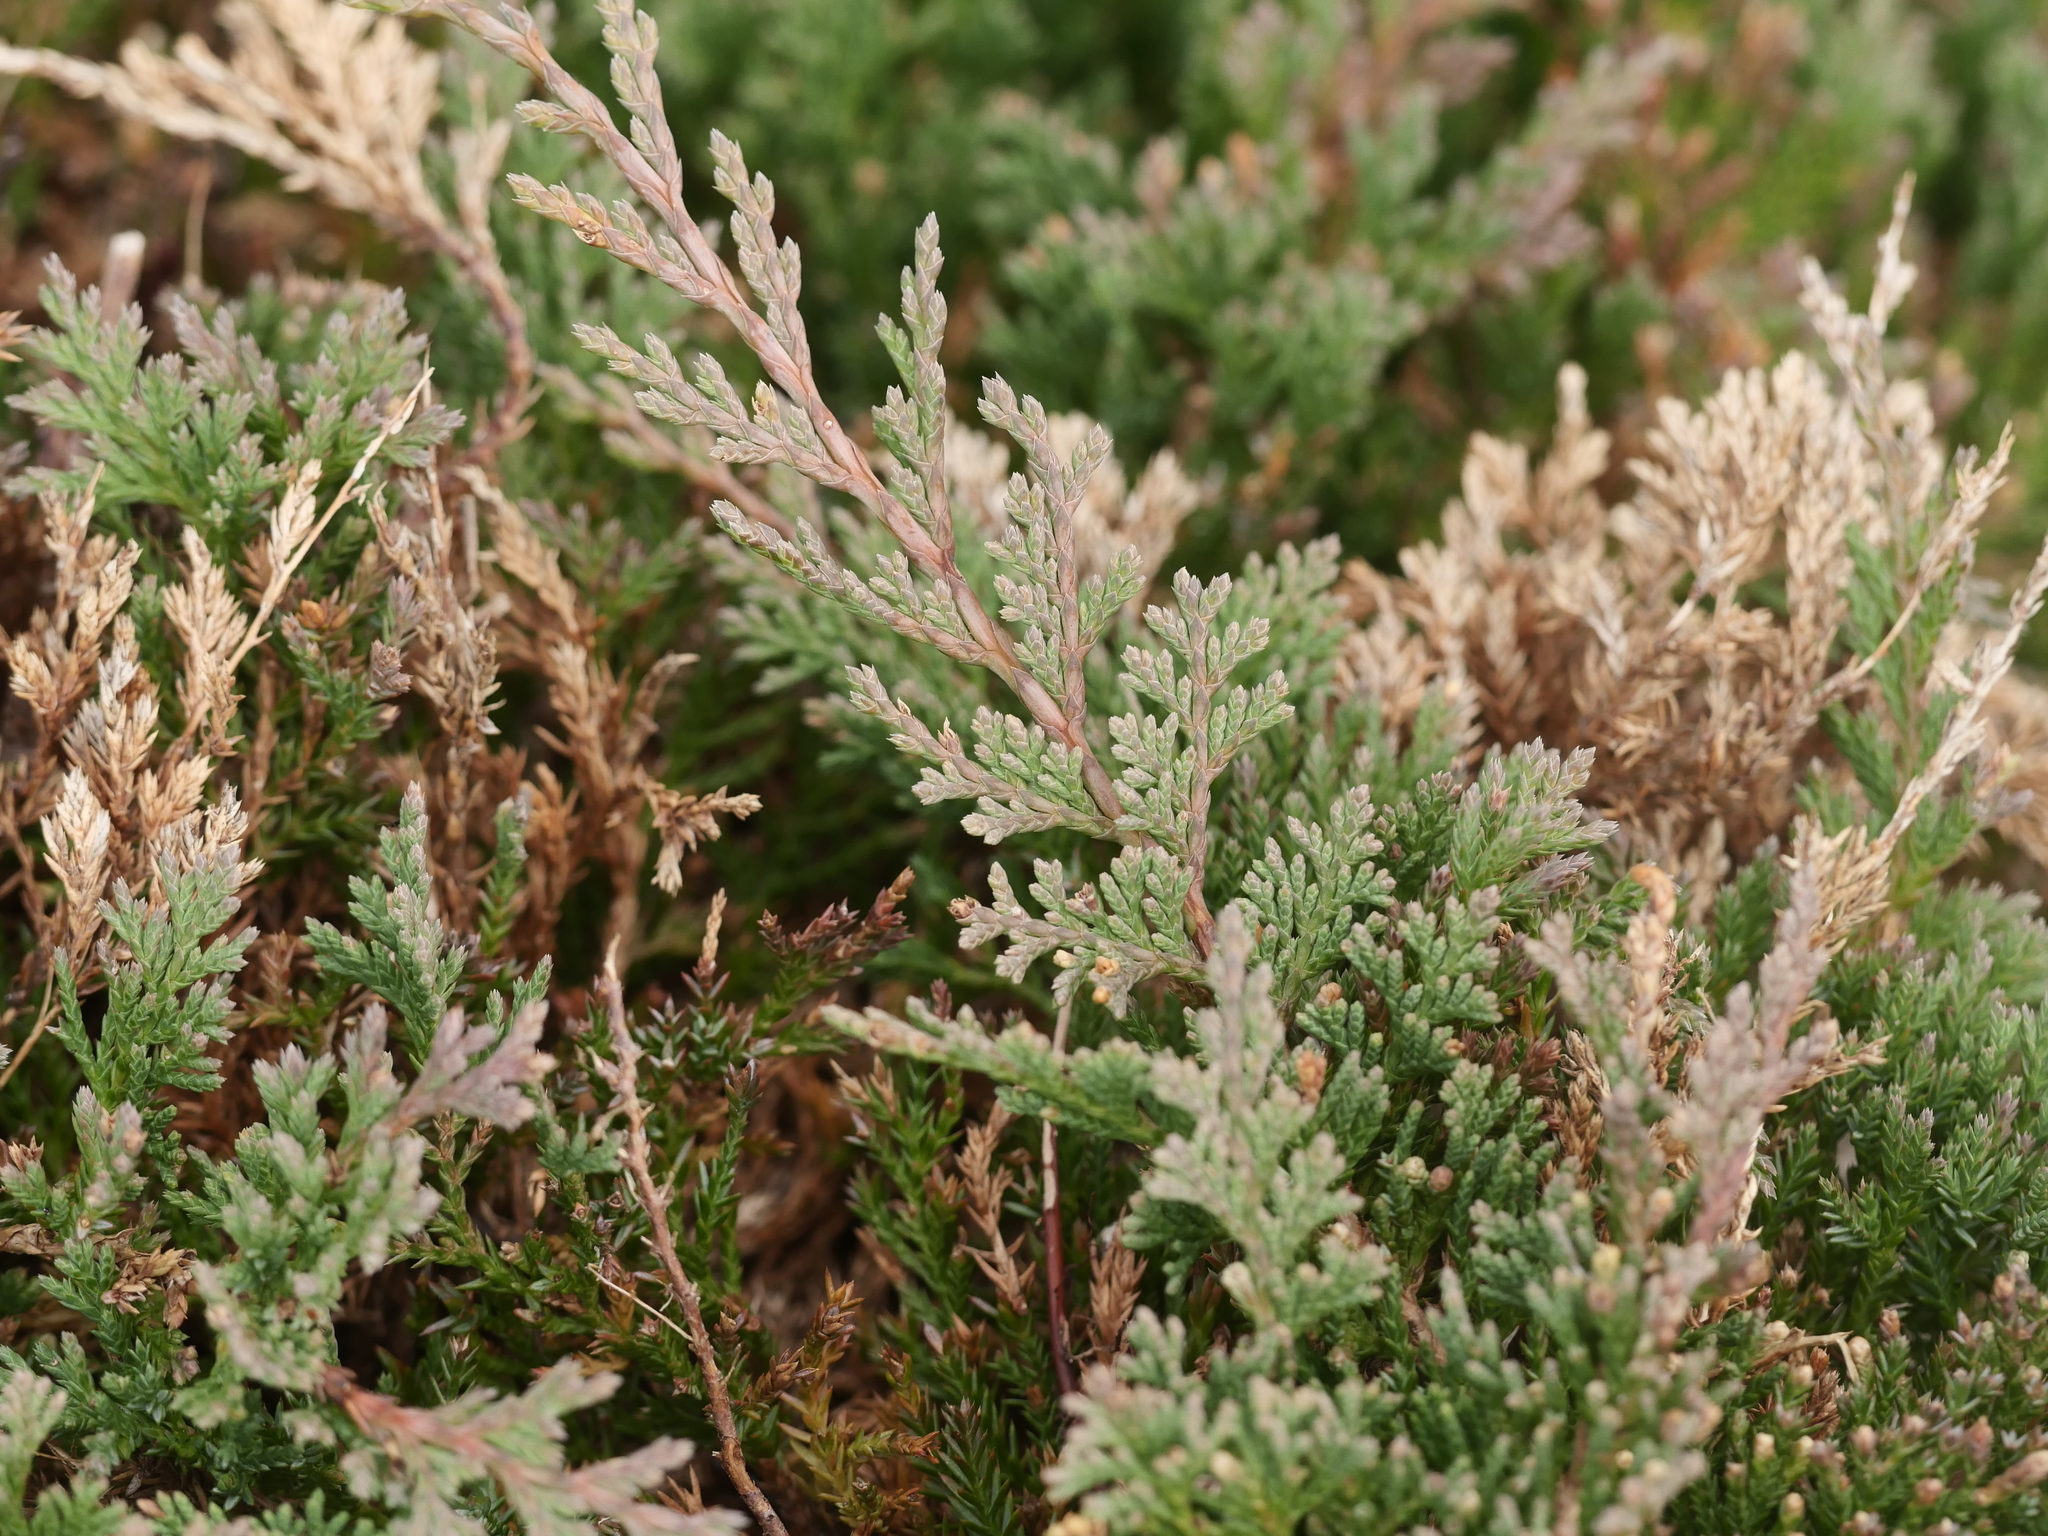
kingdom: Plantae
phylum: Tracheophyta
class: Pinopsida
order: Pinales
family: Cupressaceae
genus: Juniperus
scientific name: Juniperus horizontalis
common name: Creeping juniper
